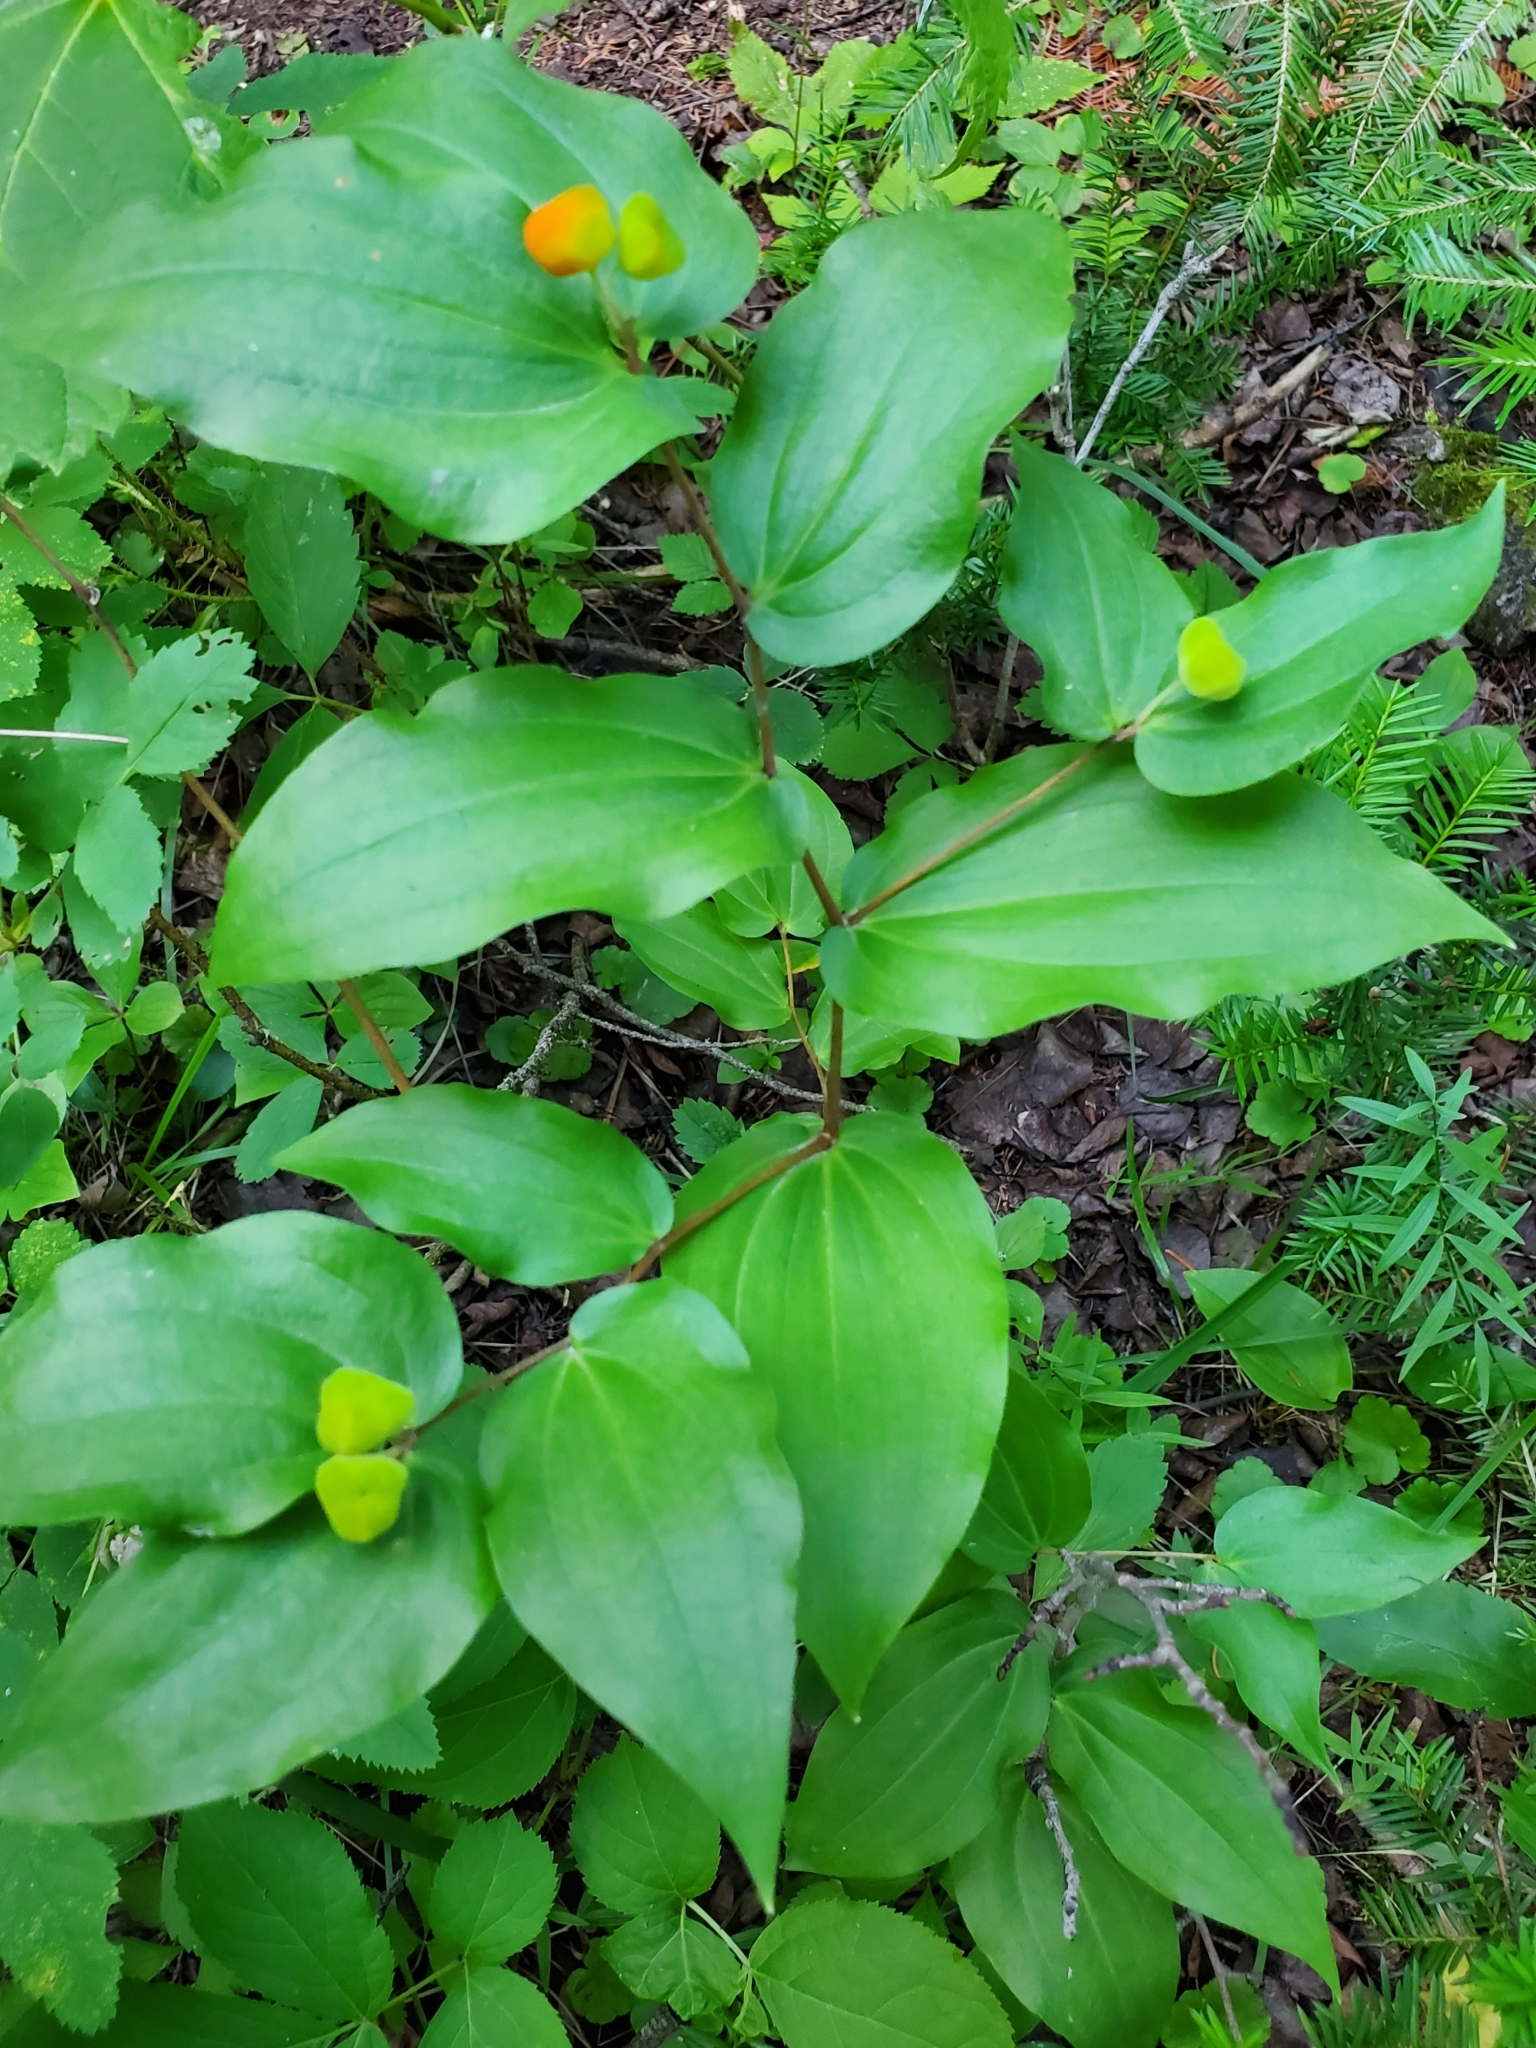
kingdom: Plantae
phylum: Tracheophyta
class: Liliopsida
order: Liliales
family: Liliaceae
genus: Prosartes
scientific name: Prosartes trachycarpa
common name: Rough-fruit fairy-bells
